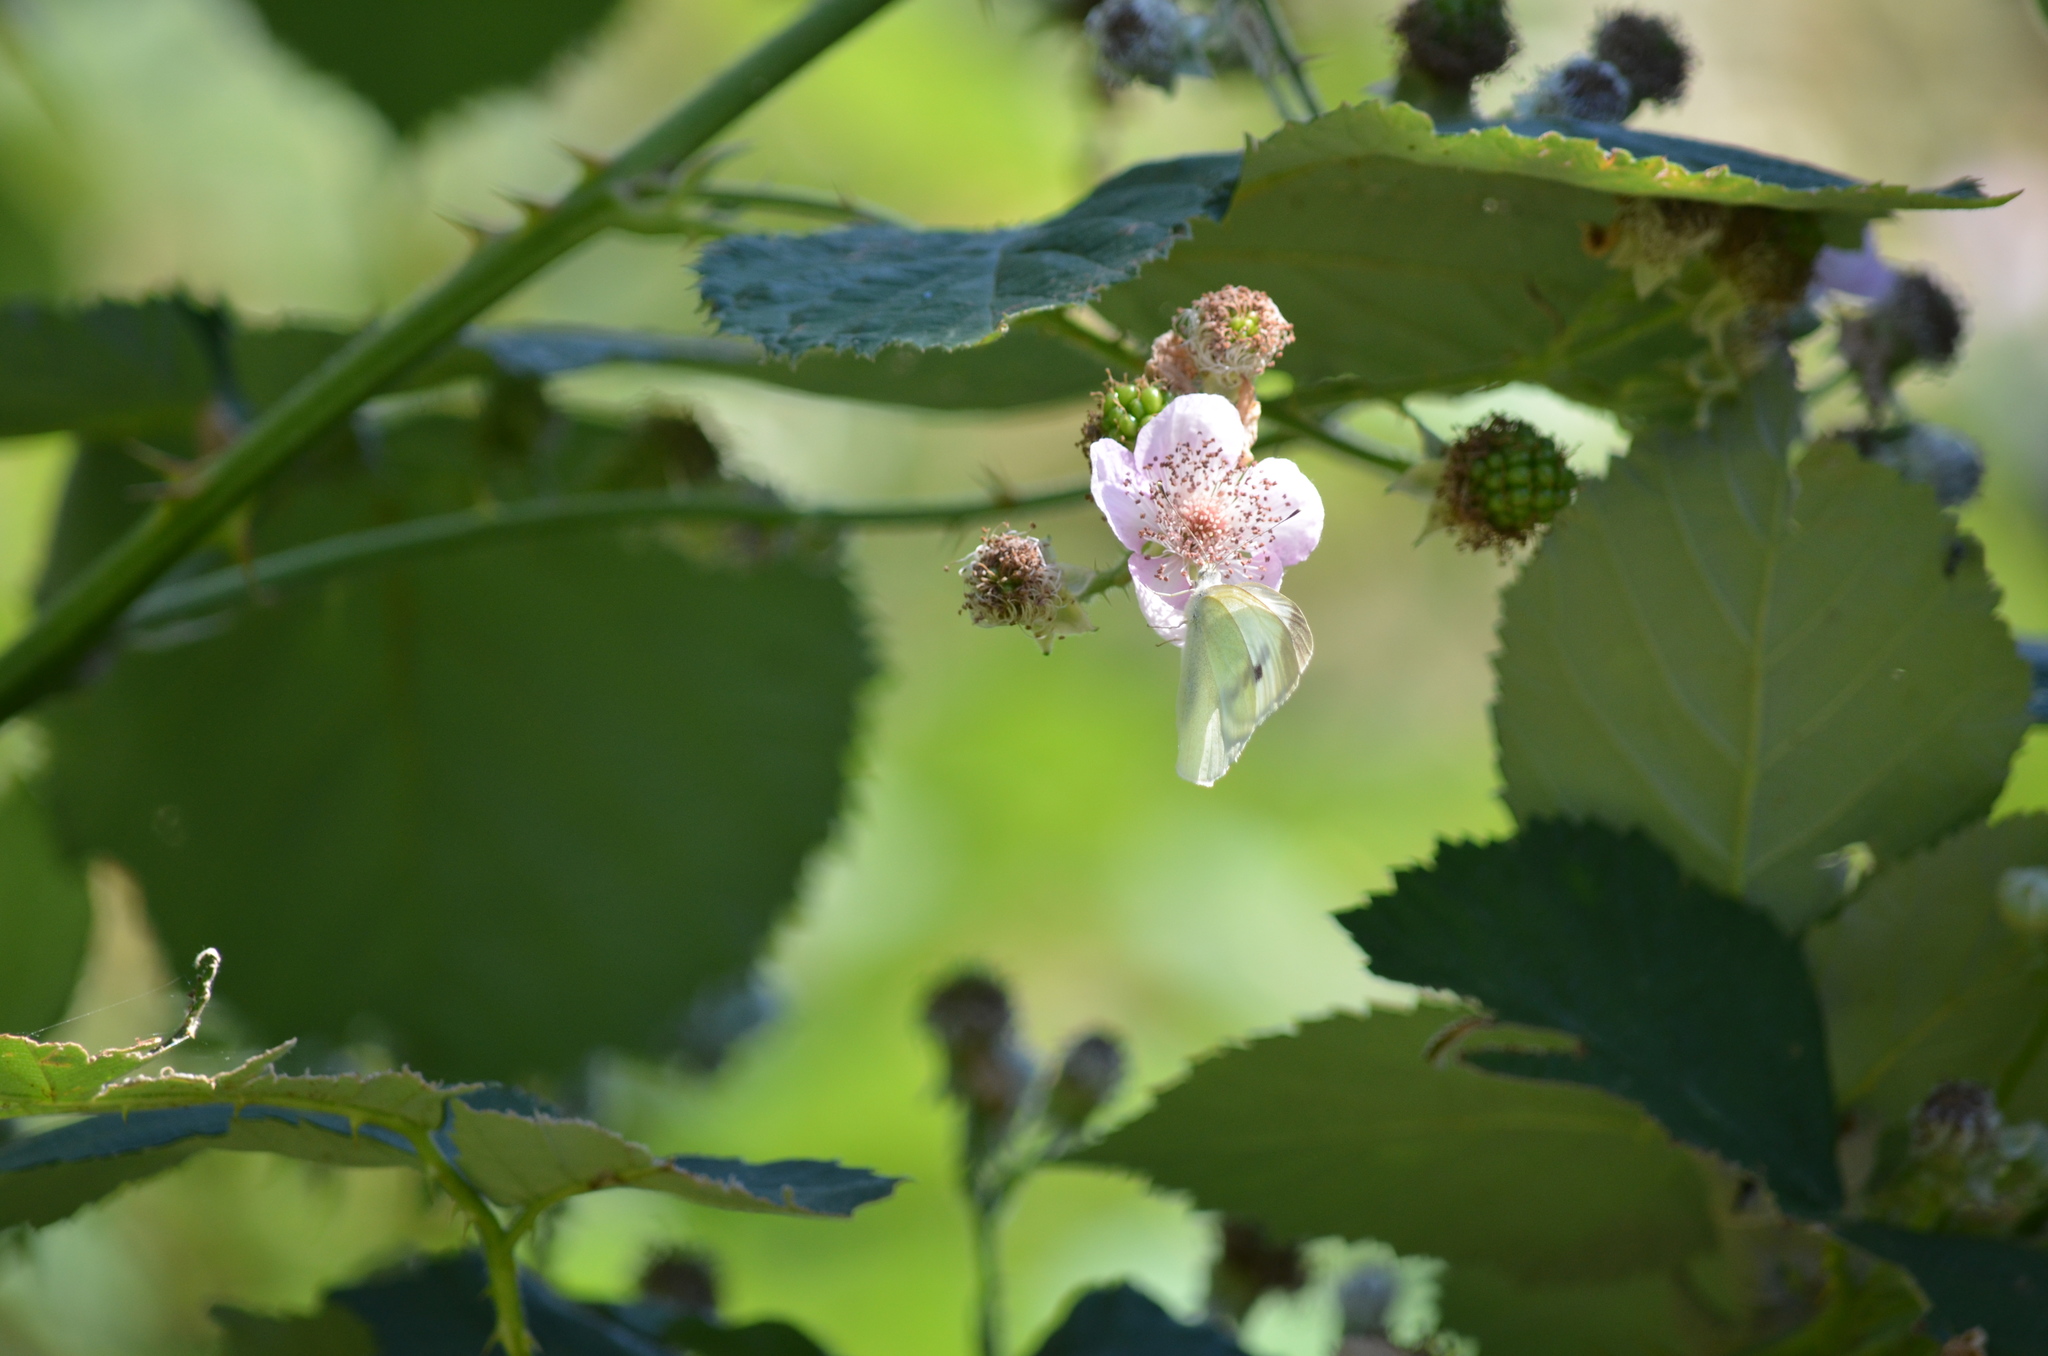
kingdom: Animalia
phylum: Arthropoda
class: Insecta
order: Lepidoptera
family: Pieridae
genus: Pieris
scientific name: Pieris rapae
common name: Small white
